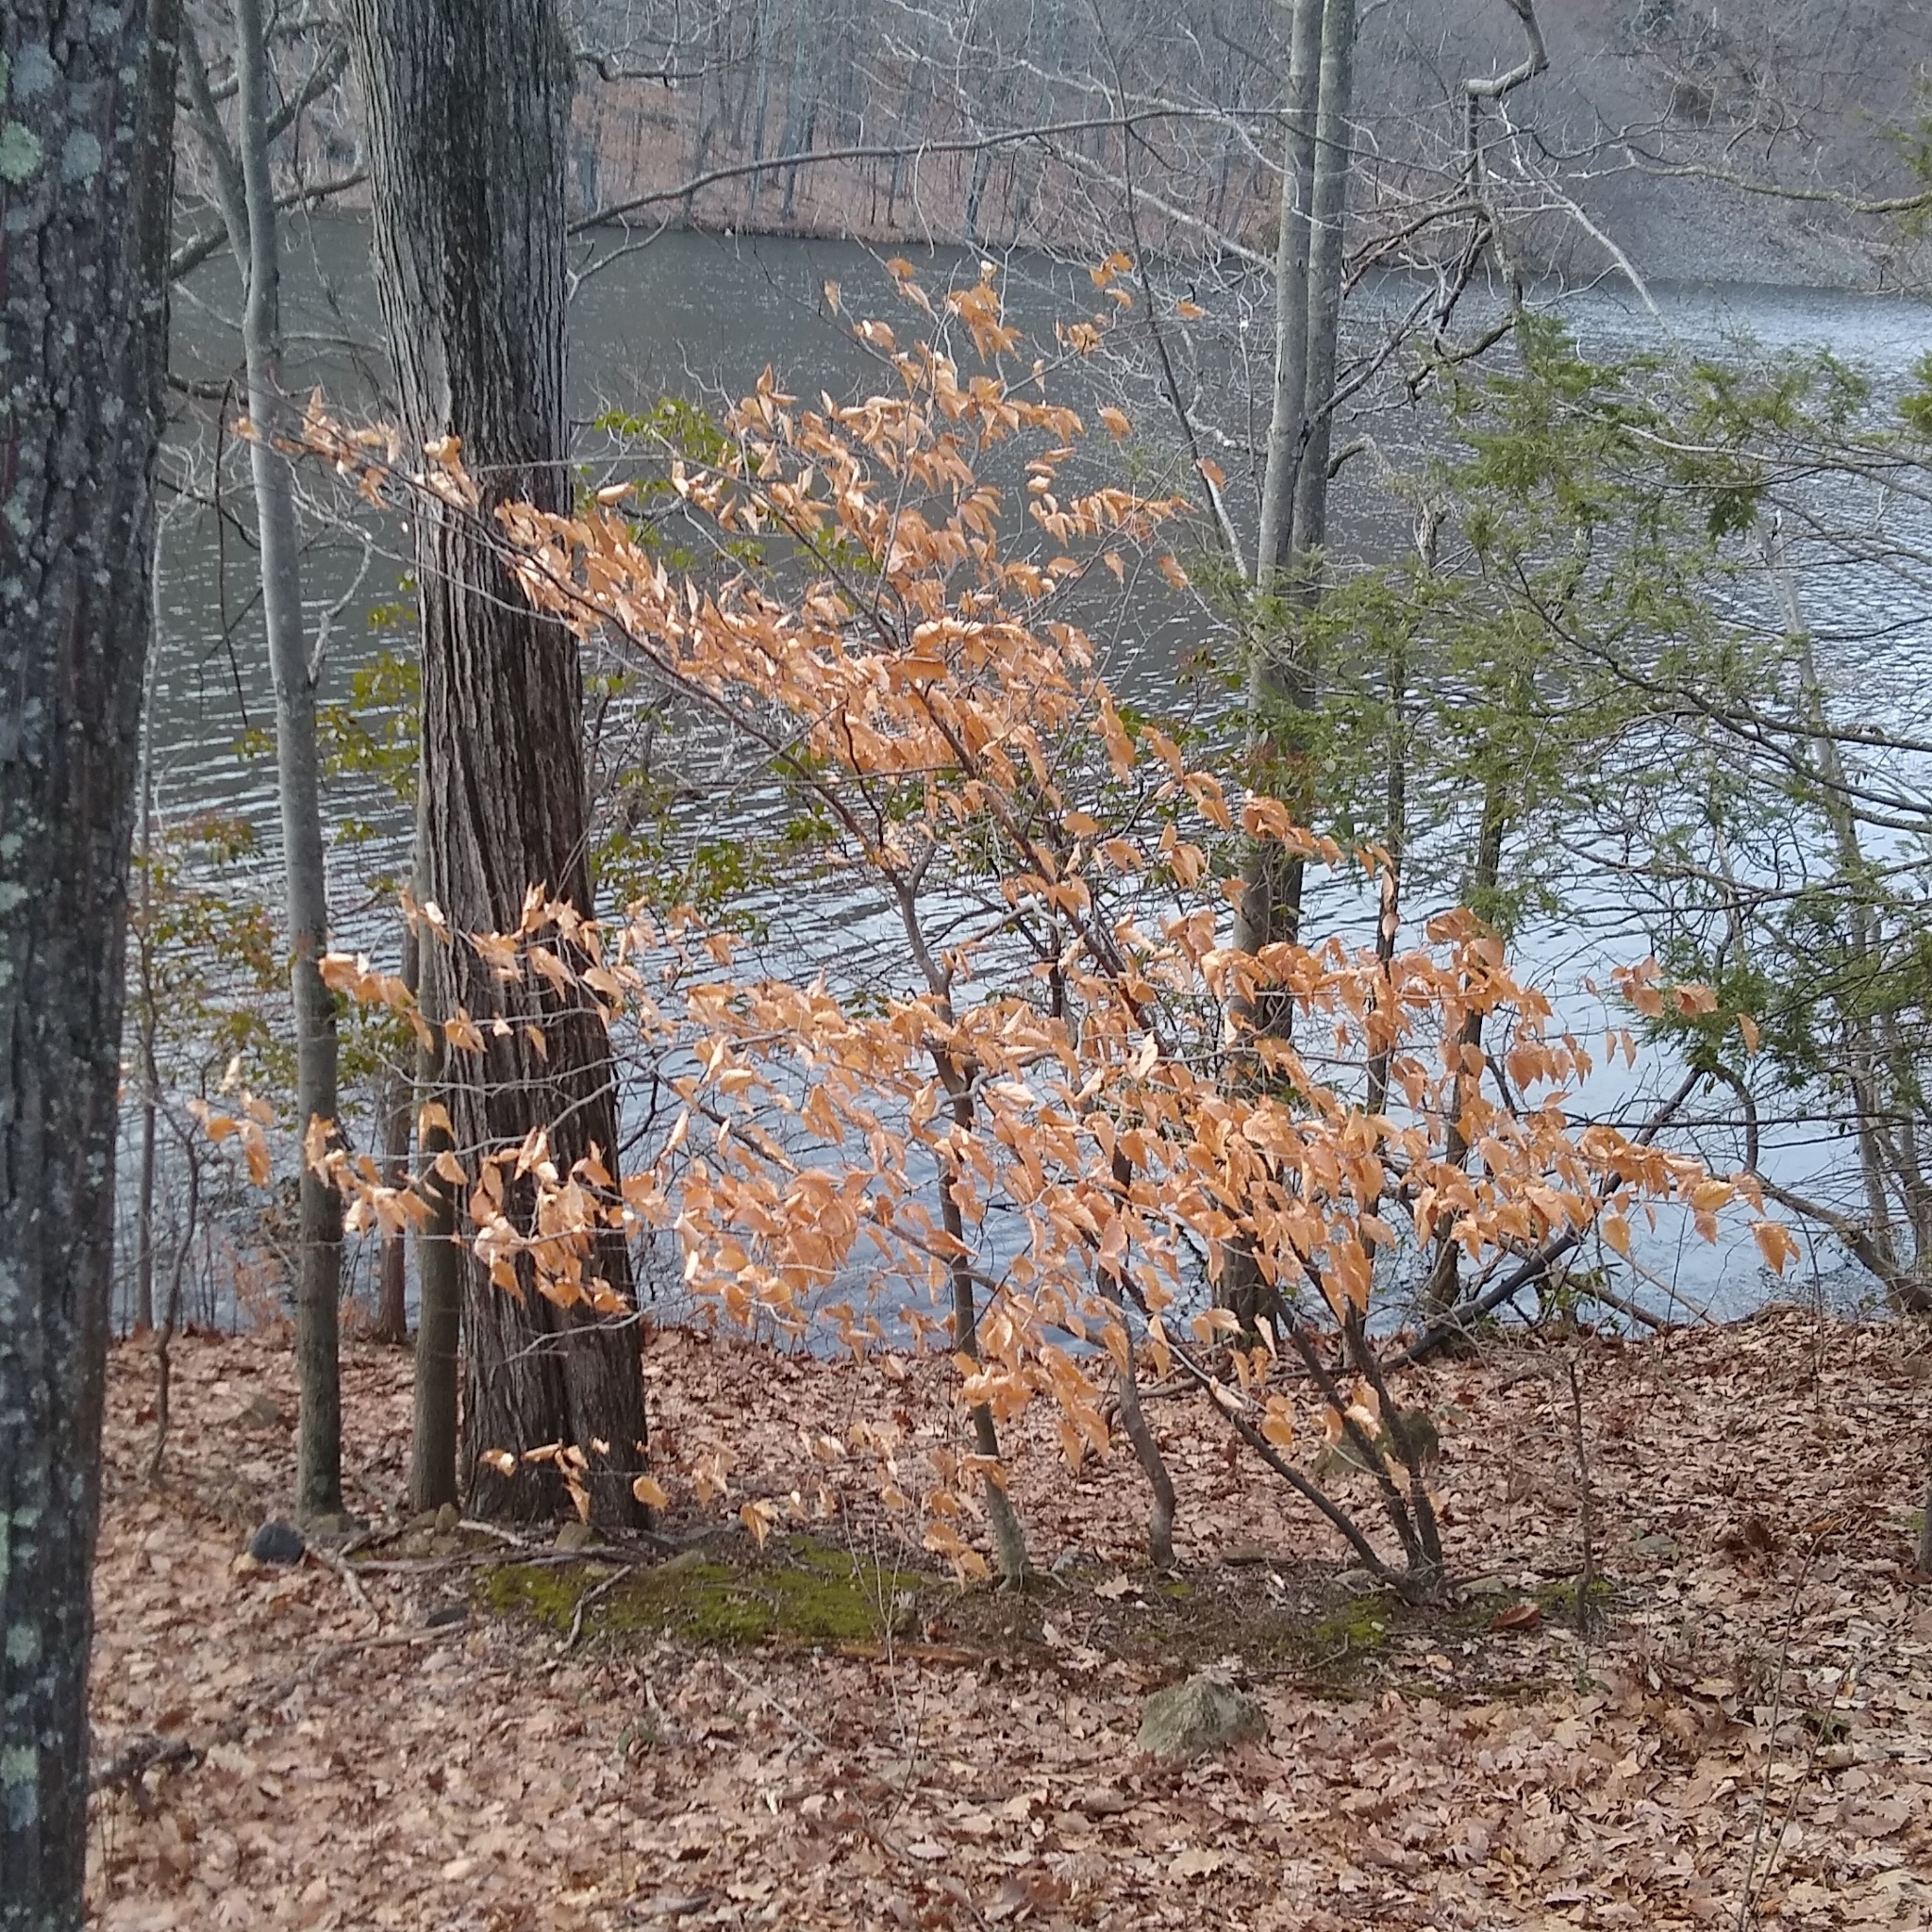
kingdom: Plantae
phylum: Tracheophyta
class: Magnoliopsida
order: Fagales
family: Fagaceae
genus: Fagus
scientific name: Fagus grandifolia
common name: American beech
